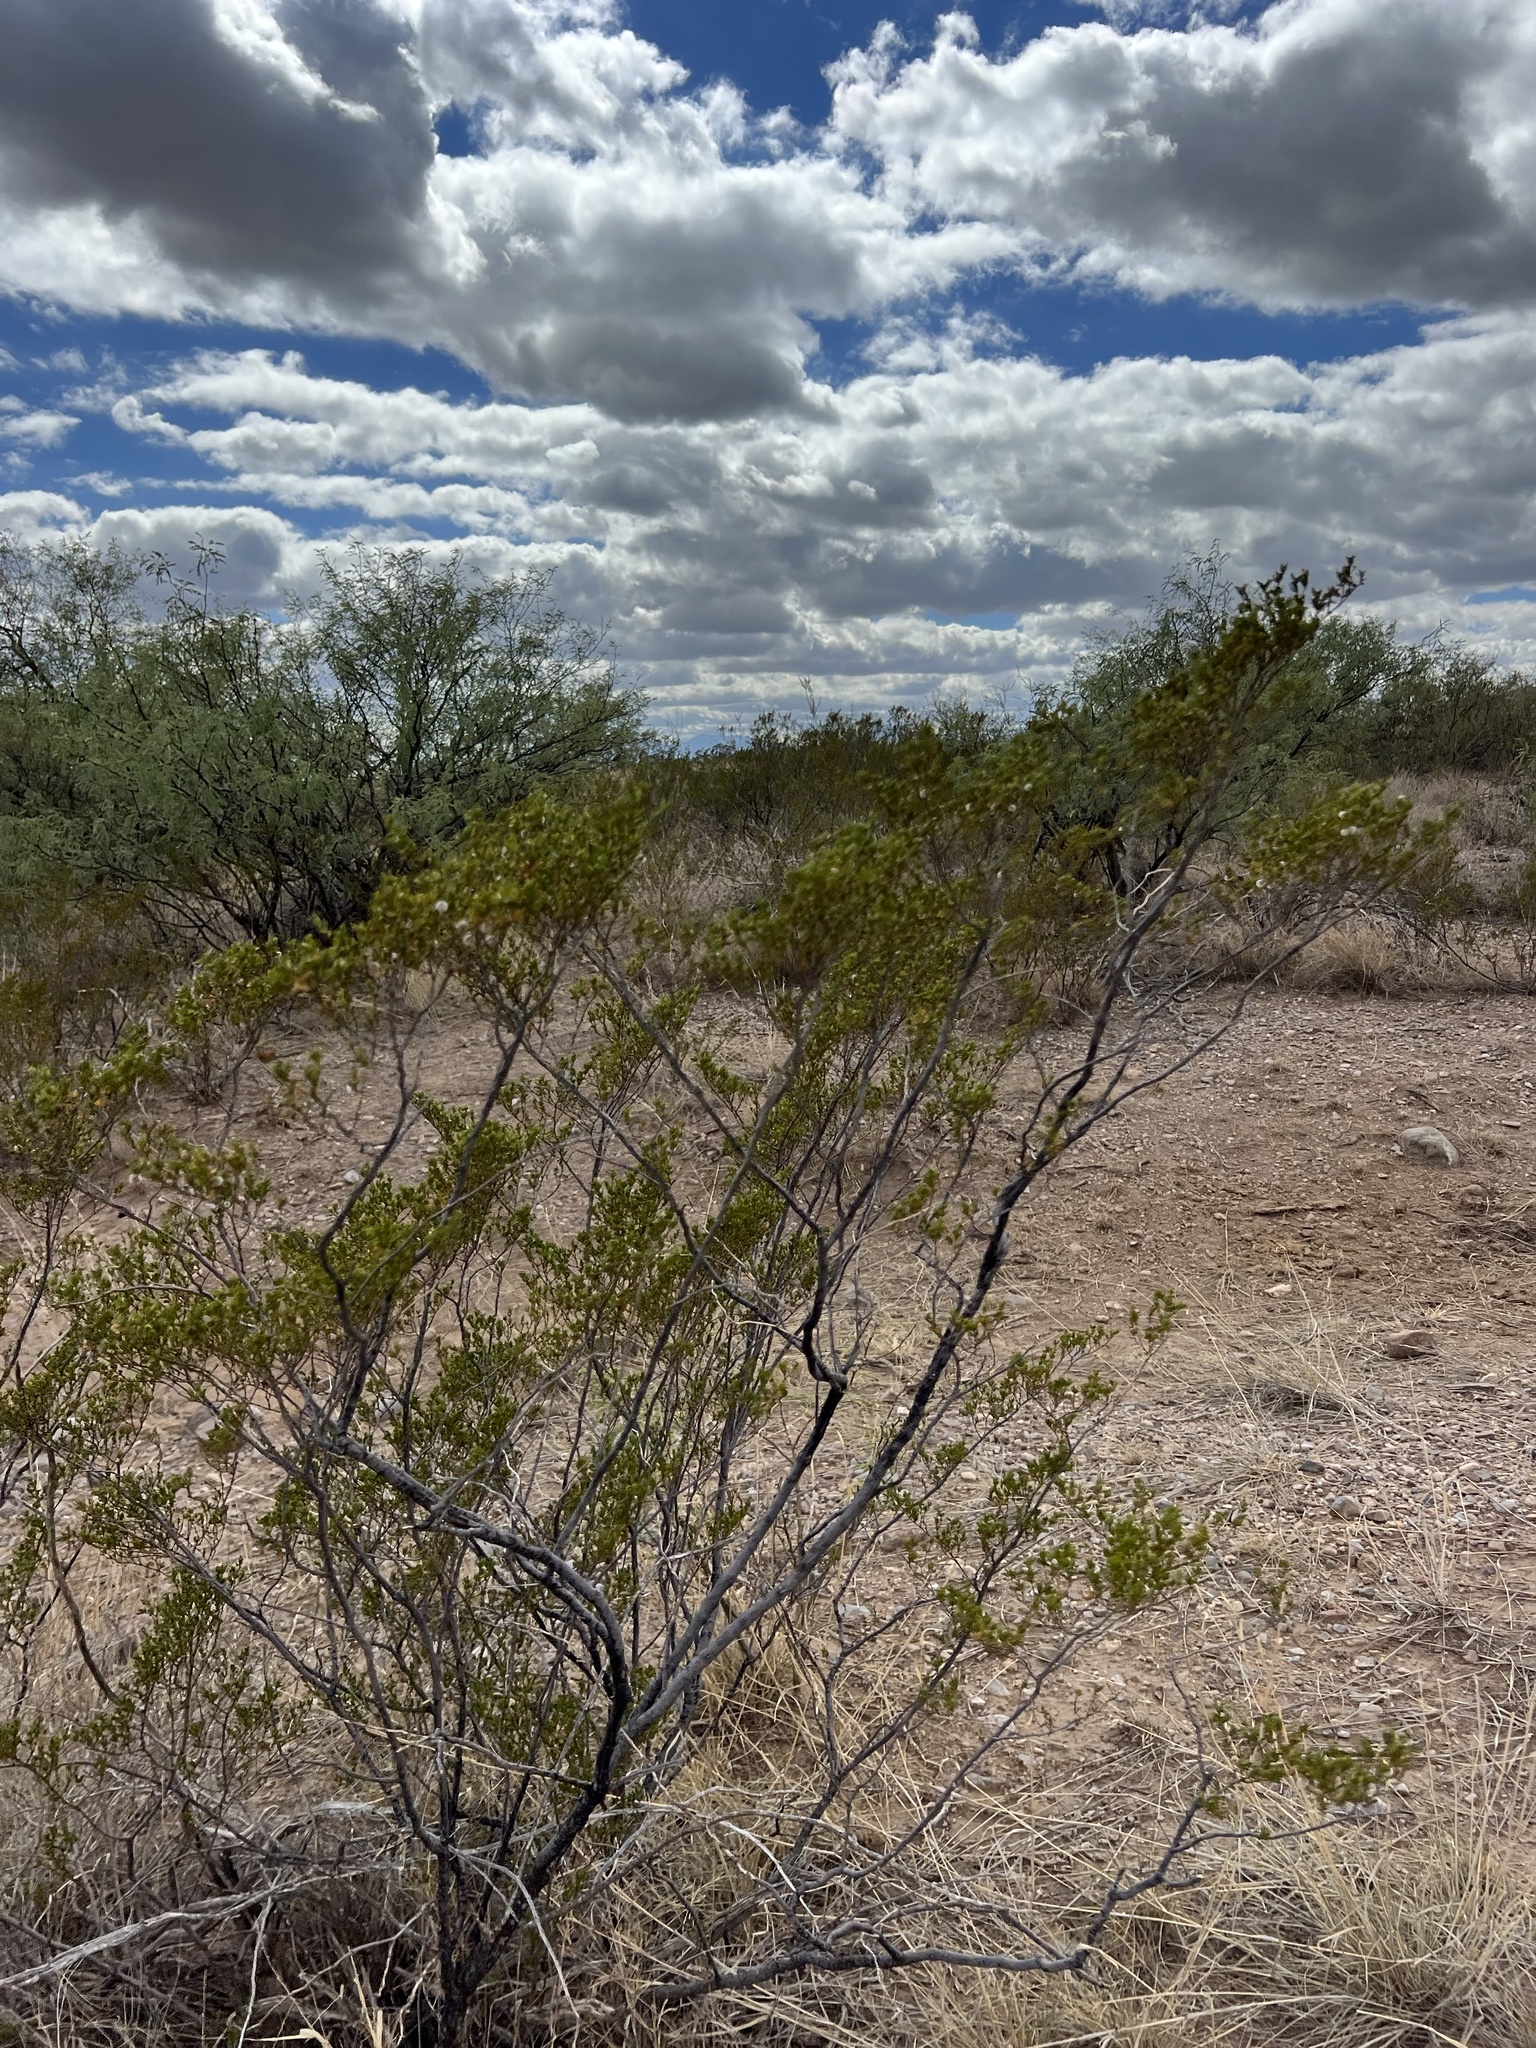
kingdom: Plantae
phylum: Tracheophyta
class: Magnoliopsida
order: Zygophyllales
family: Zygophyllaceae
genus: Larrea
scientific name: Larrea tridentata
